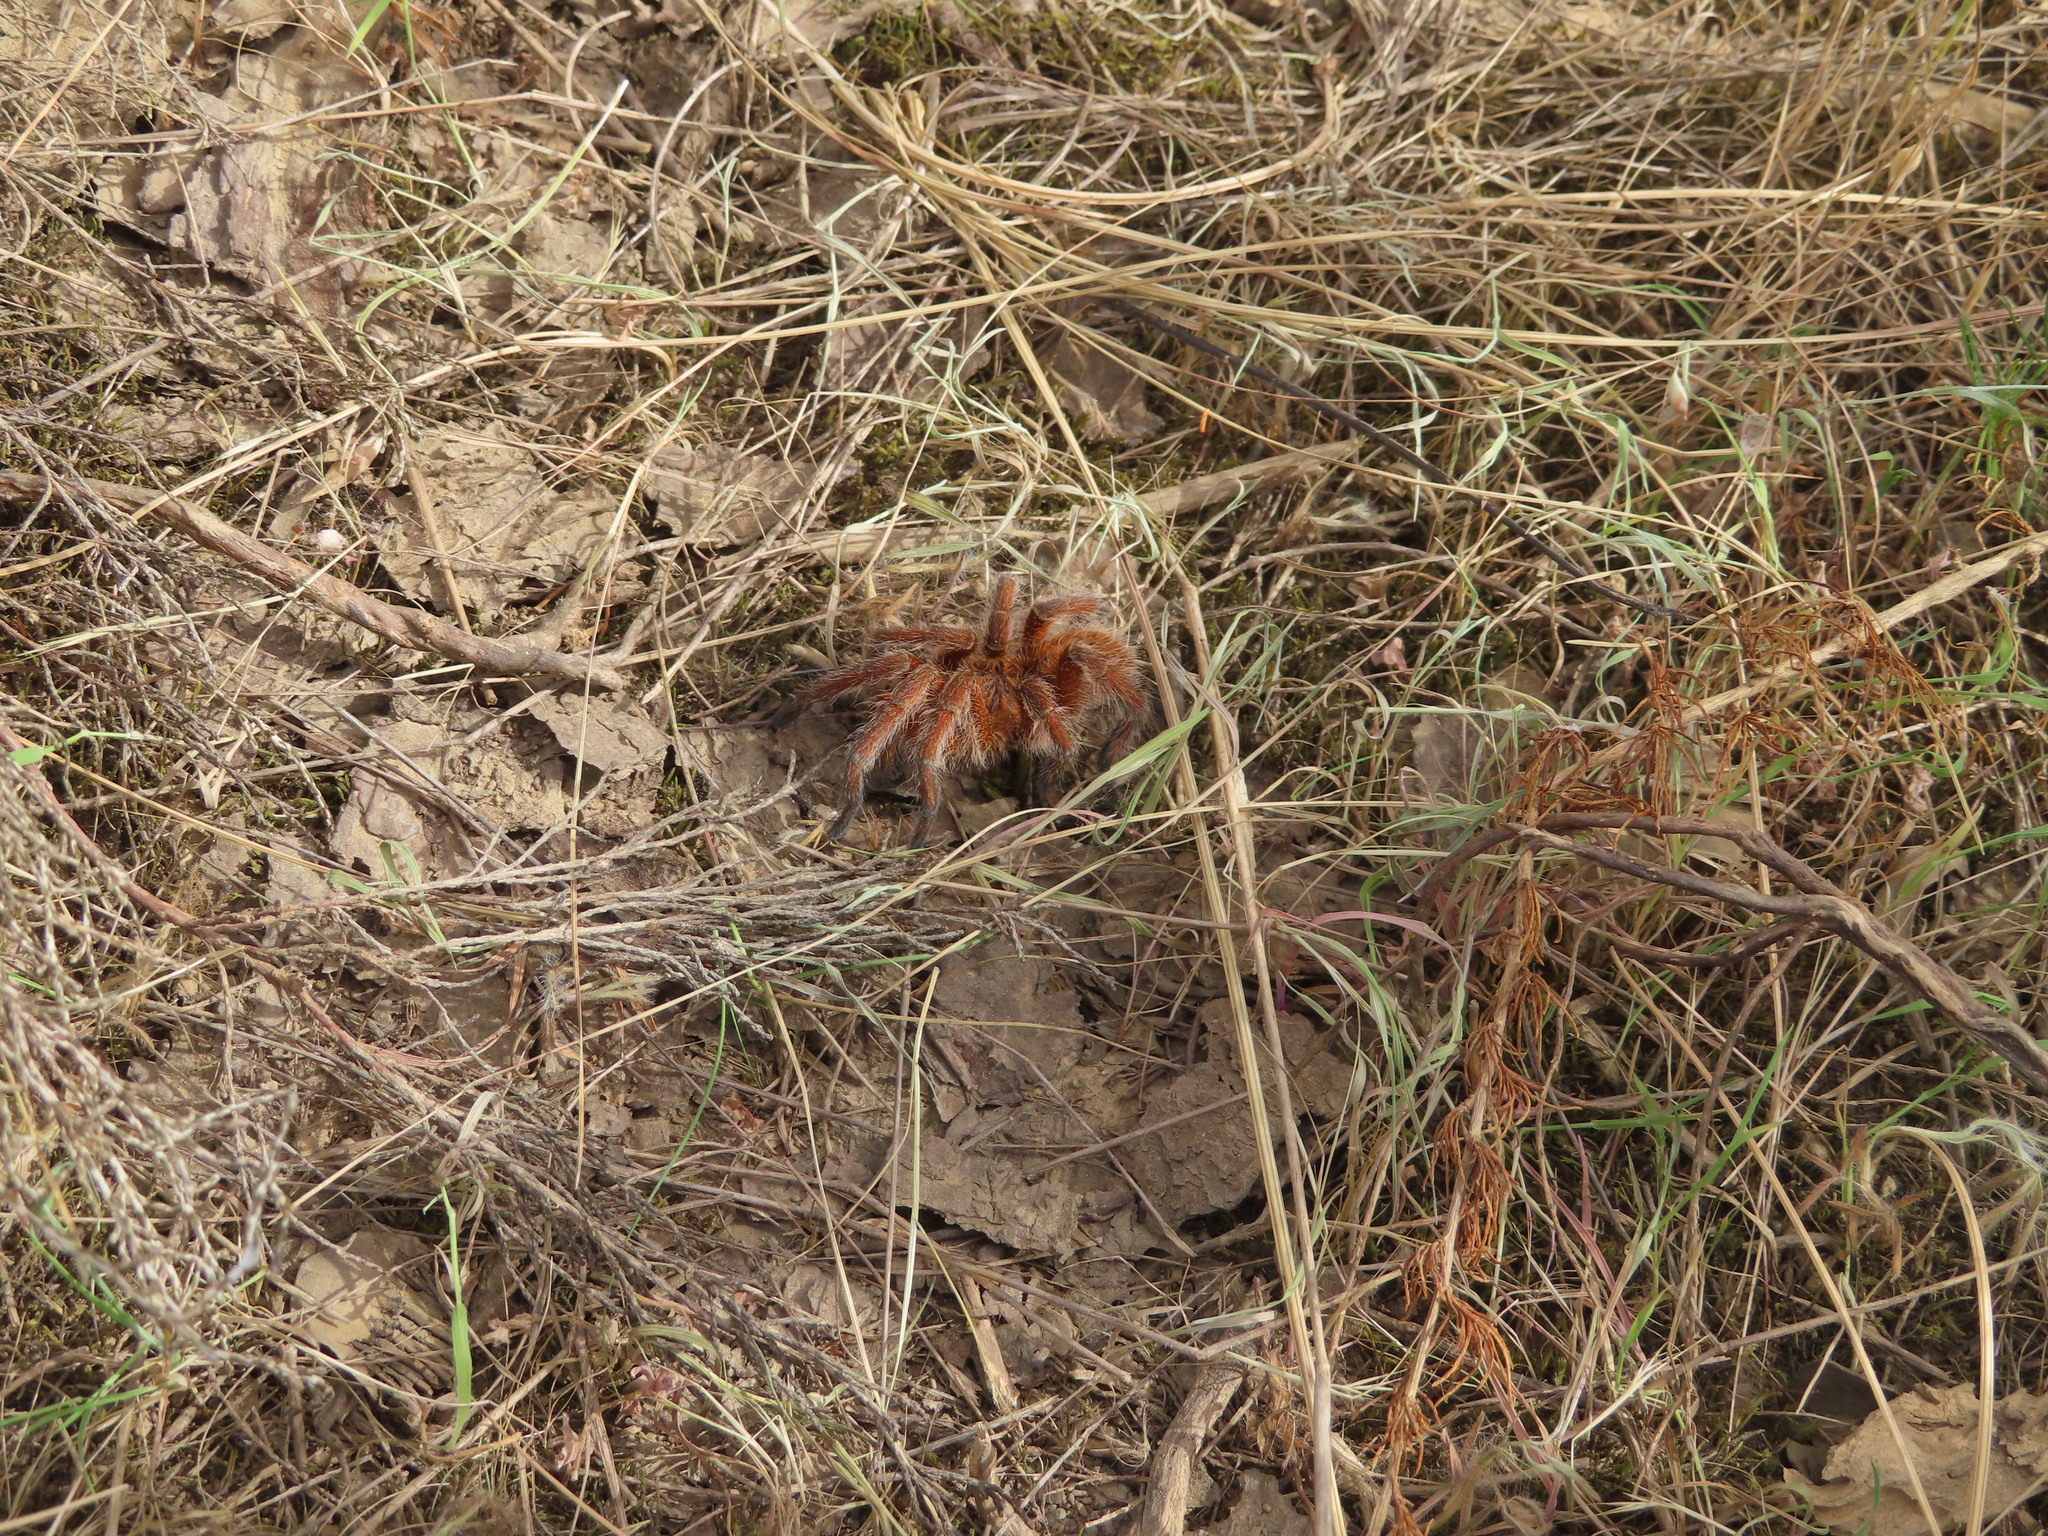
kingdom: Animalia
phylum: Arthropoda
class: Arachnida
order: Araneae
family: Theraphosidae
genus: Harpactira
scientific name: Harpactira cafreriana
